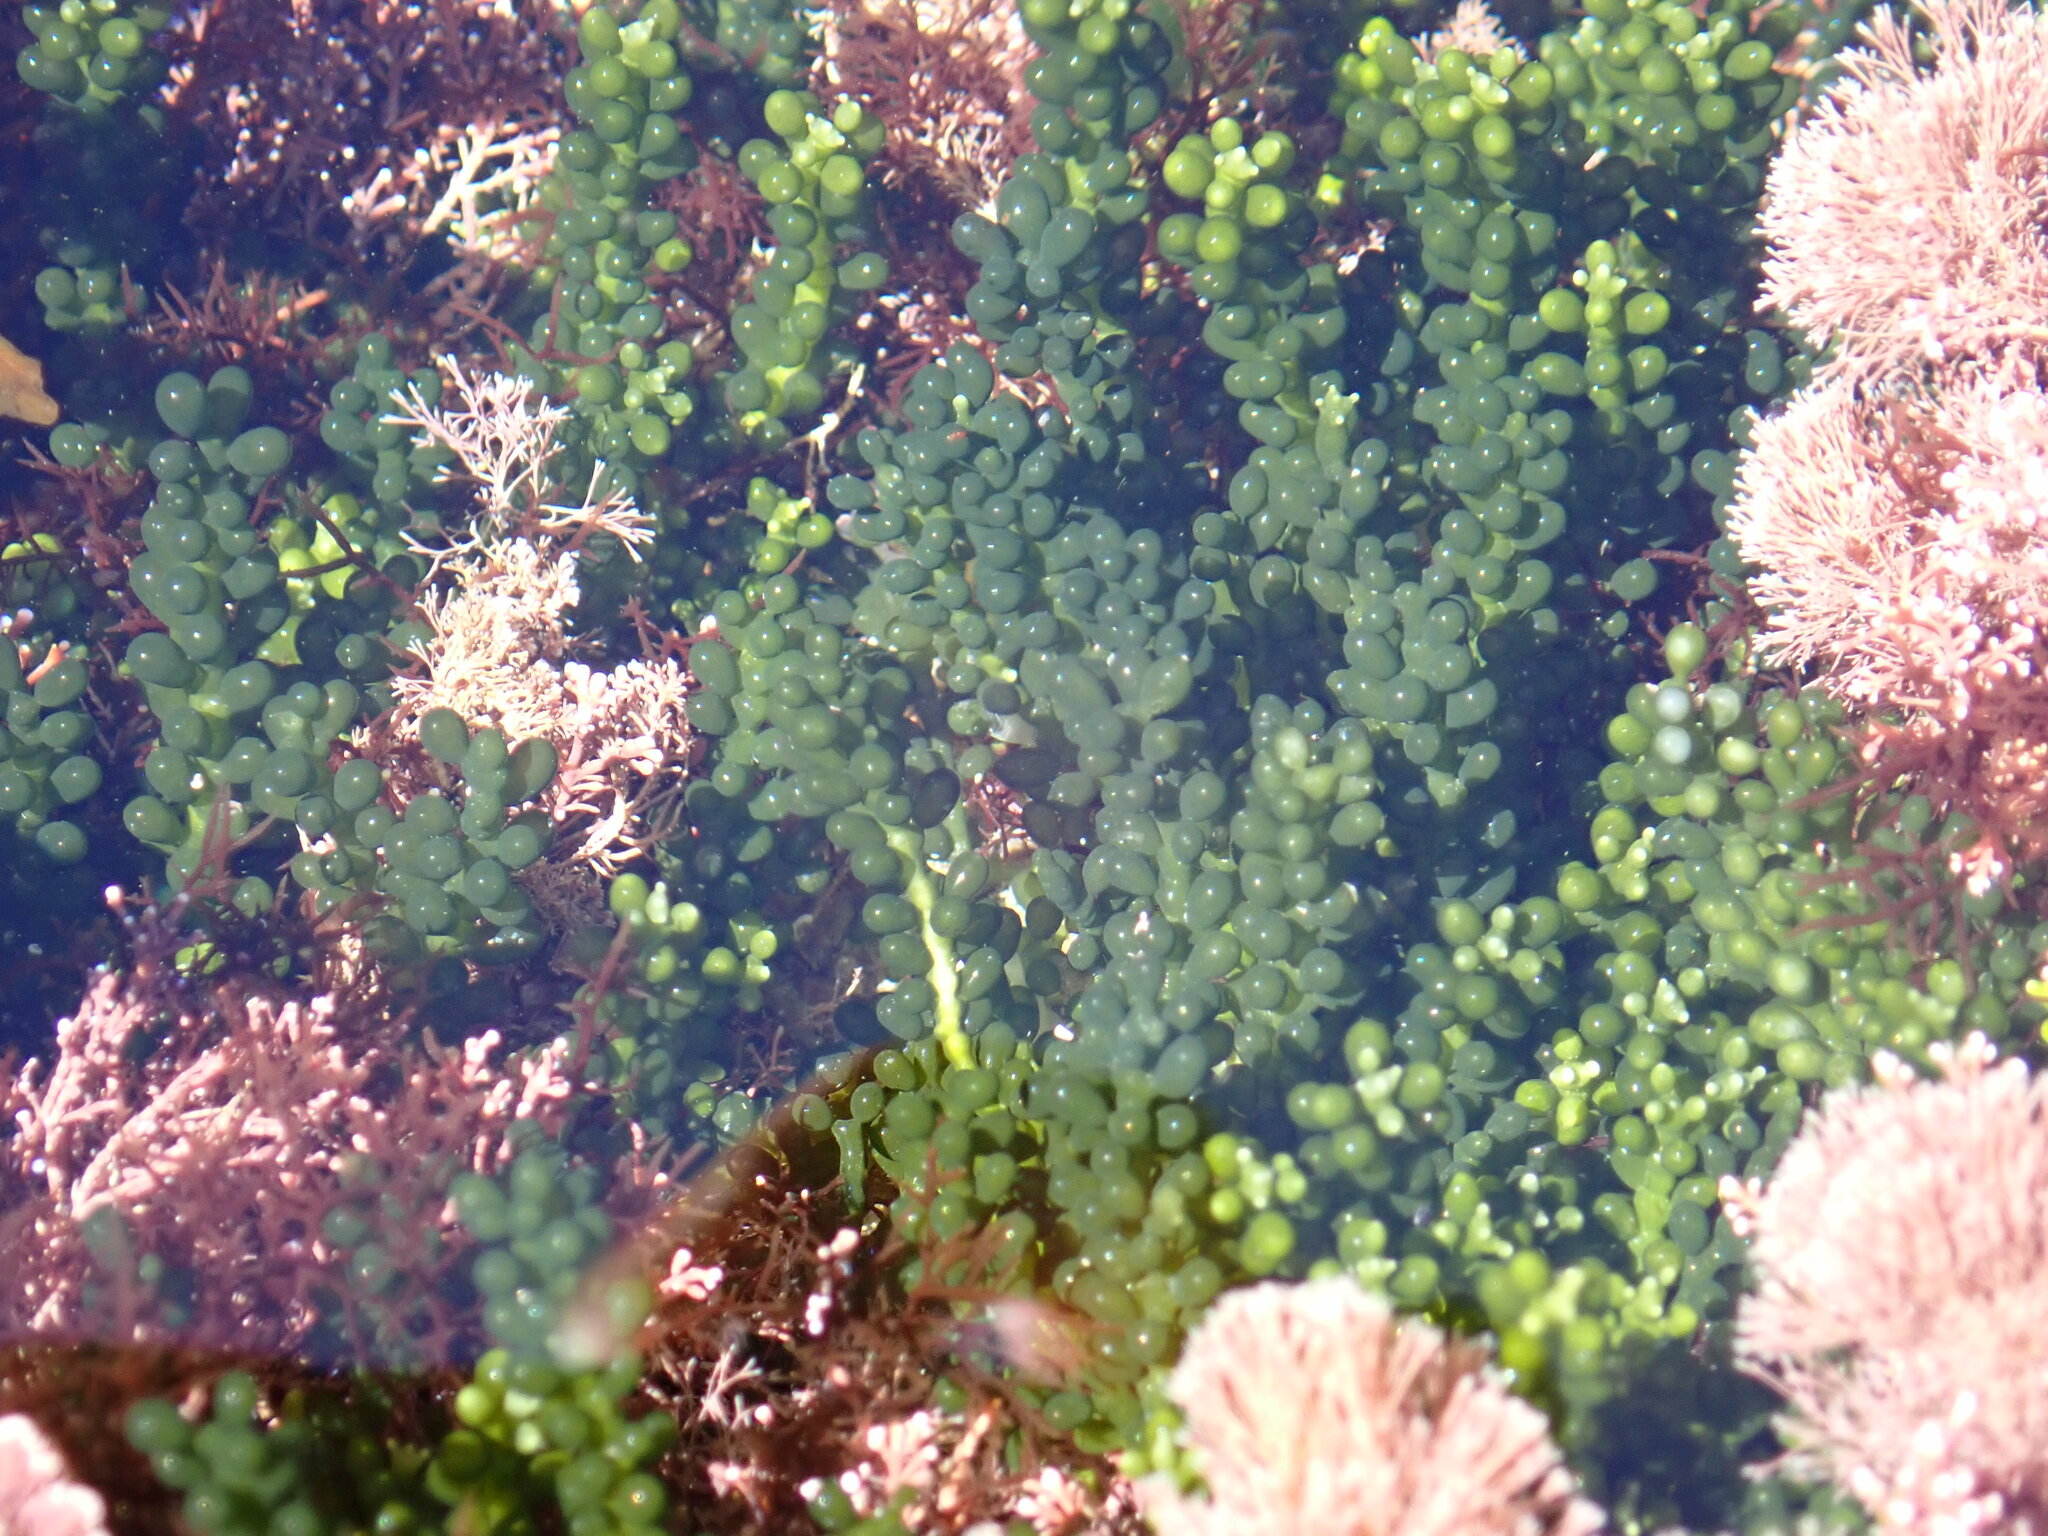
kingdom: Plantae
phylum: Chlorophyta
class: Ulvophyceae
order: Bryopsidales
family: Caulerpaceae
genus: Caulerpa
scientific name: Caulerpa geminata
